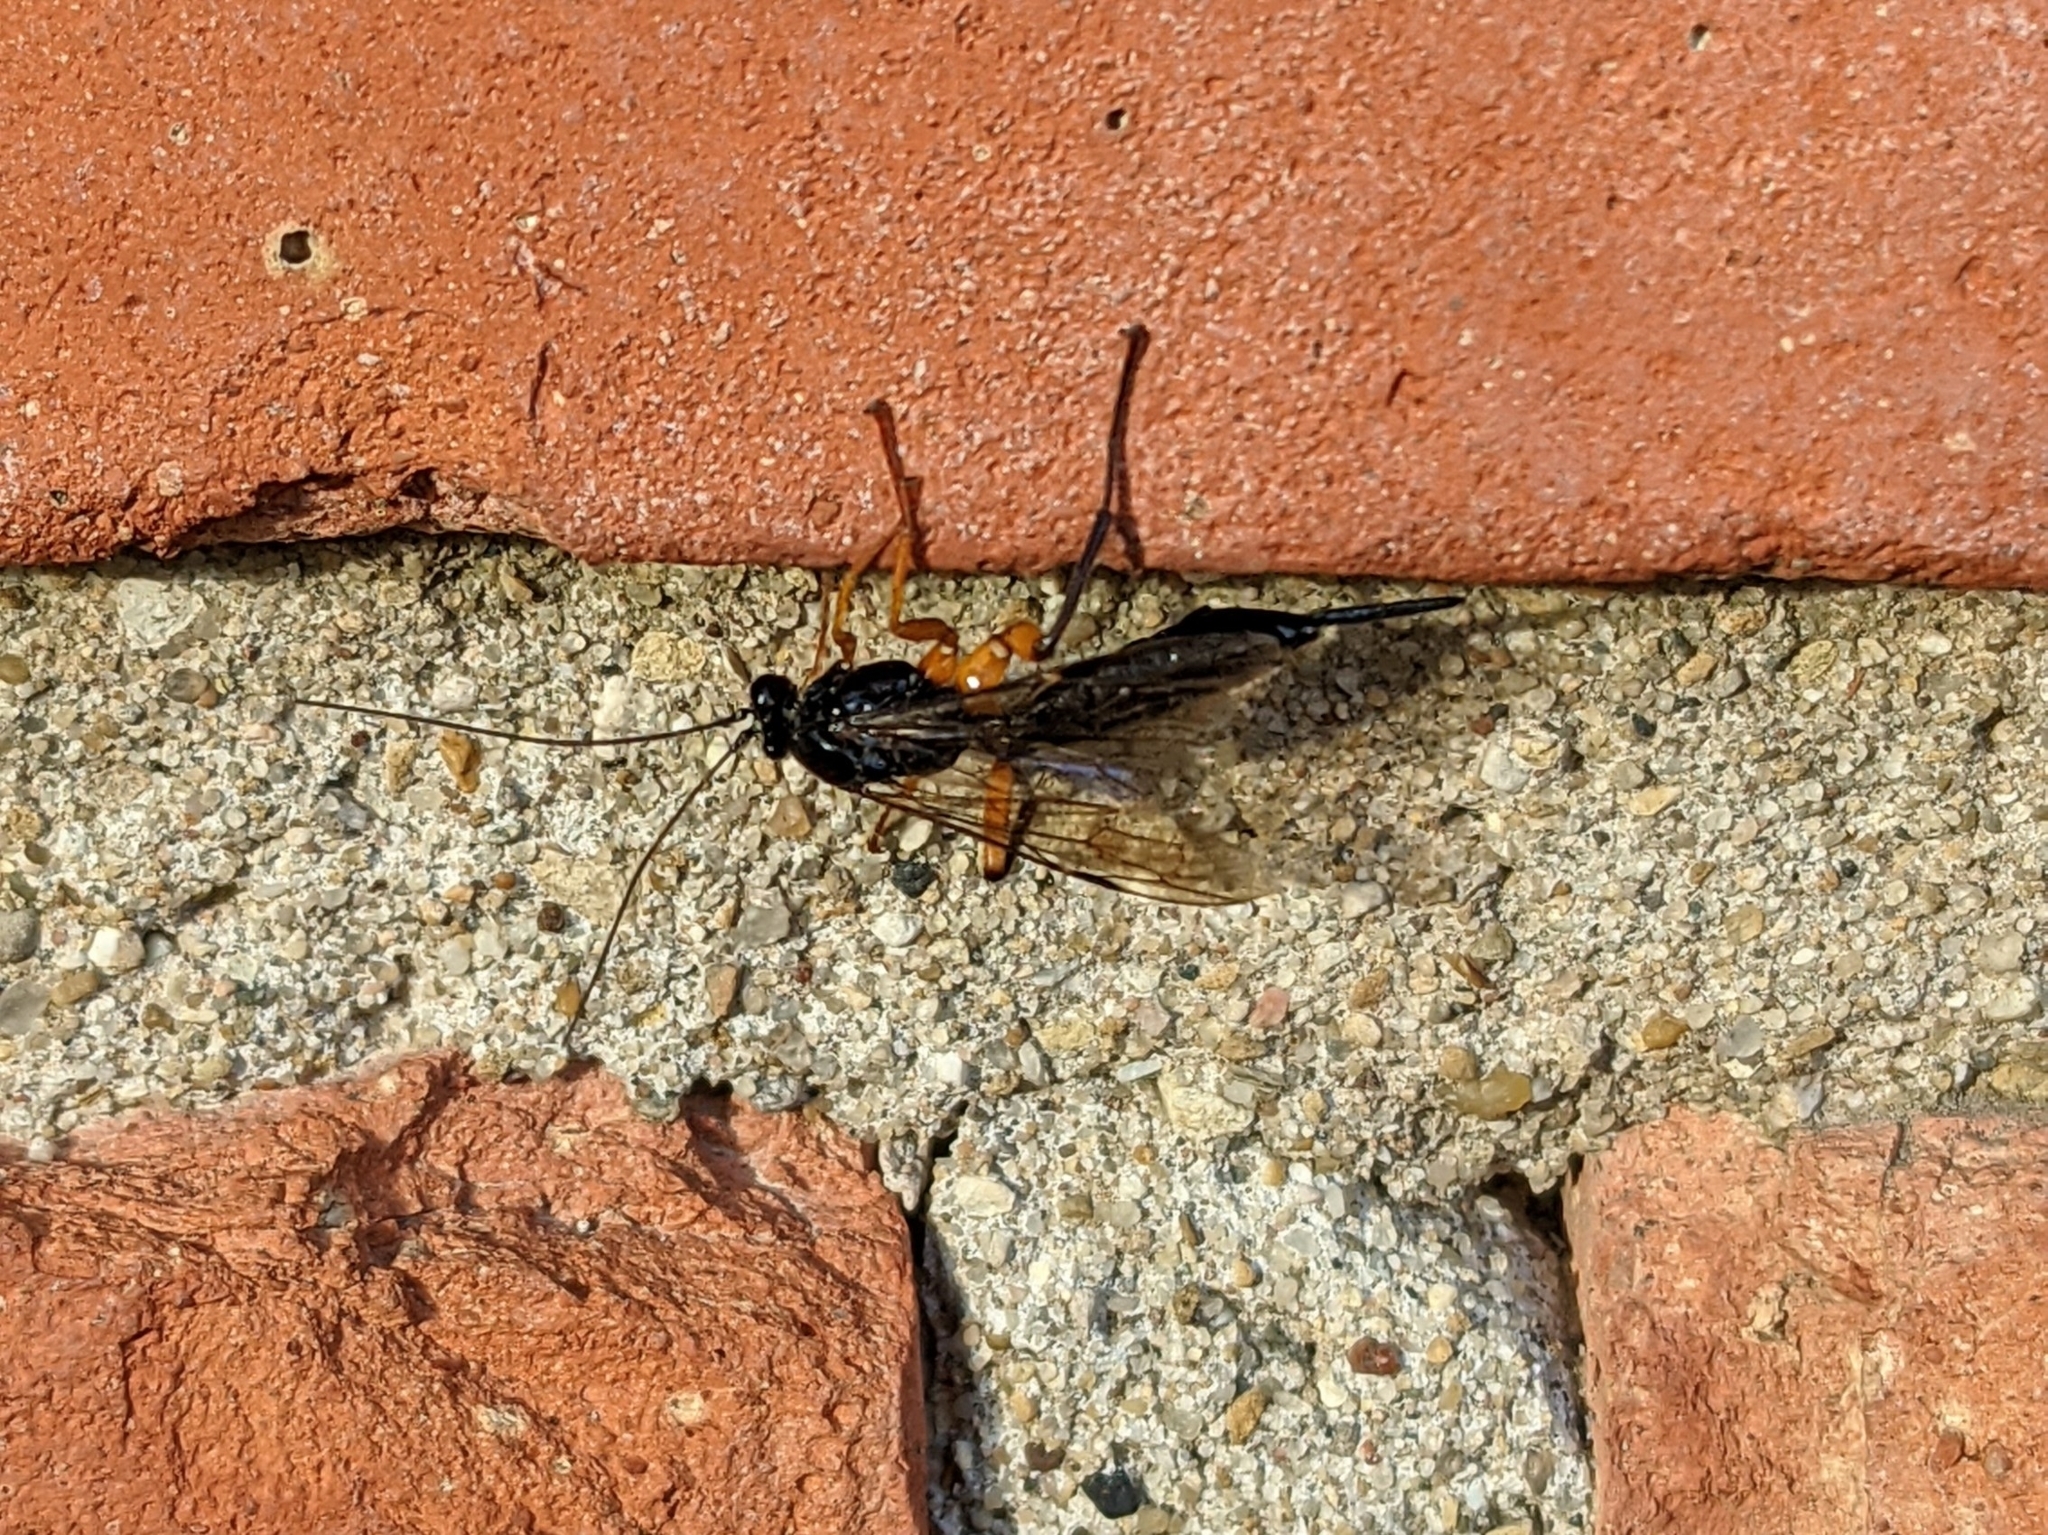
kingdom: Animalia
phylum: Arthropoda
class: Insecta
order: Hymenoptera
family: Ichneumonidae
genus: Pimpla
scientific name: Pimpla pedalis
